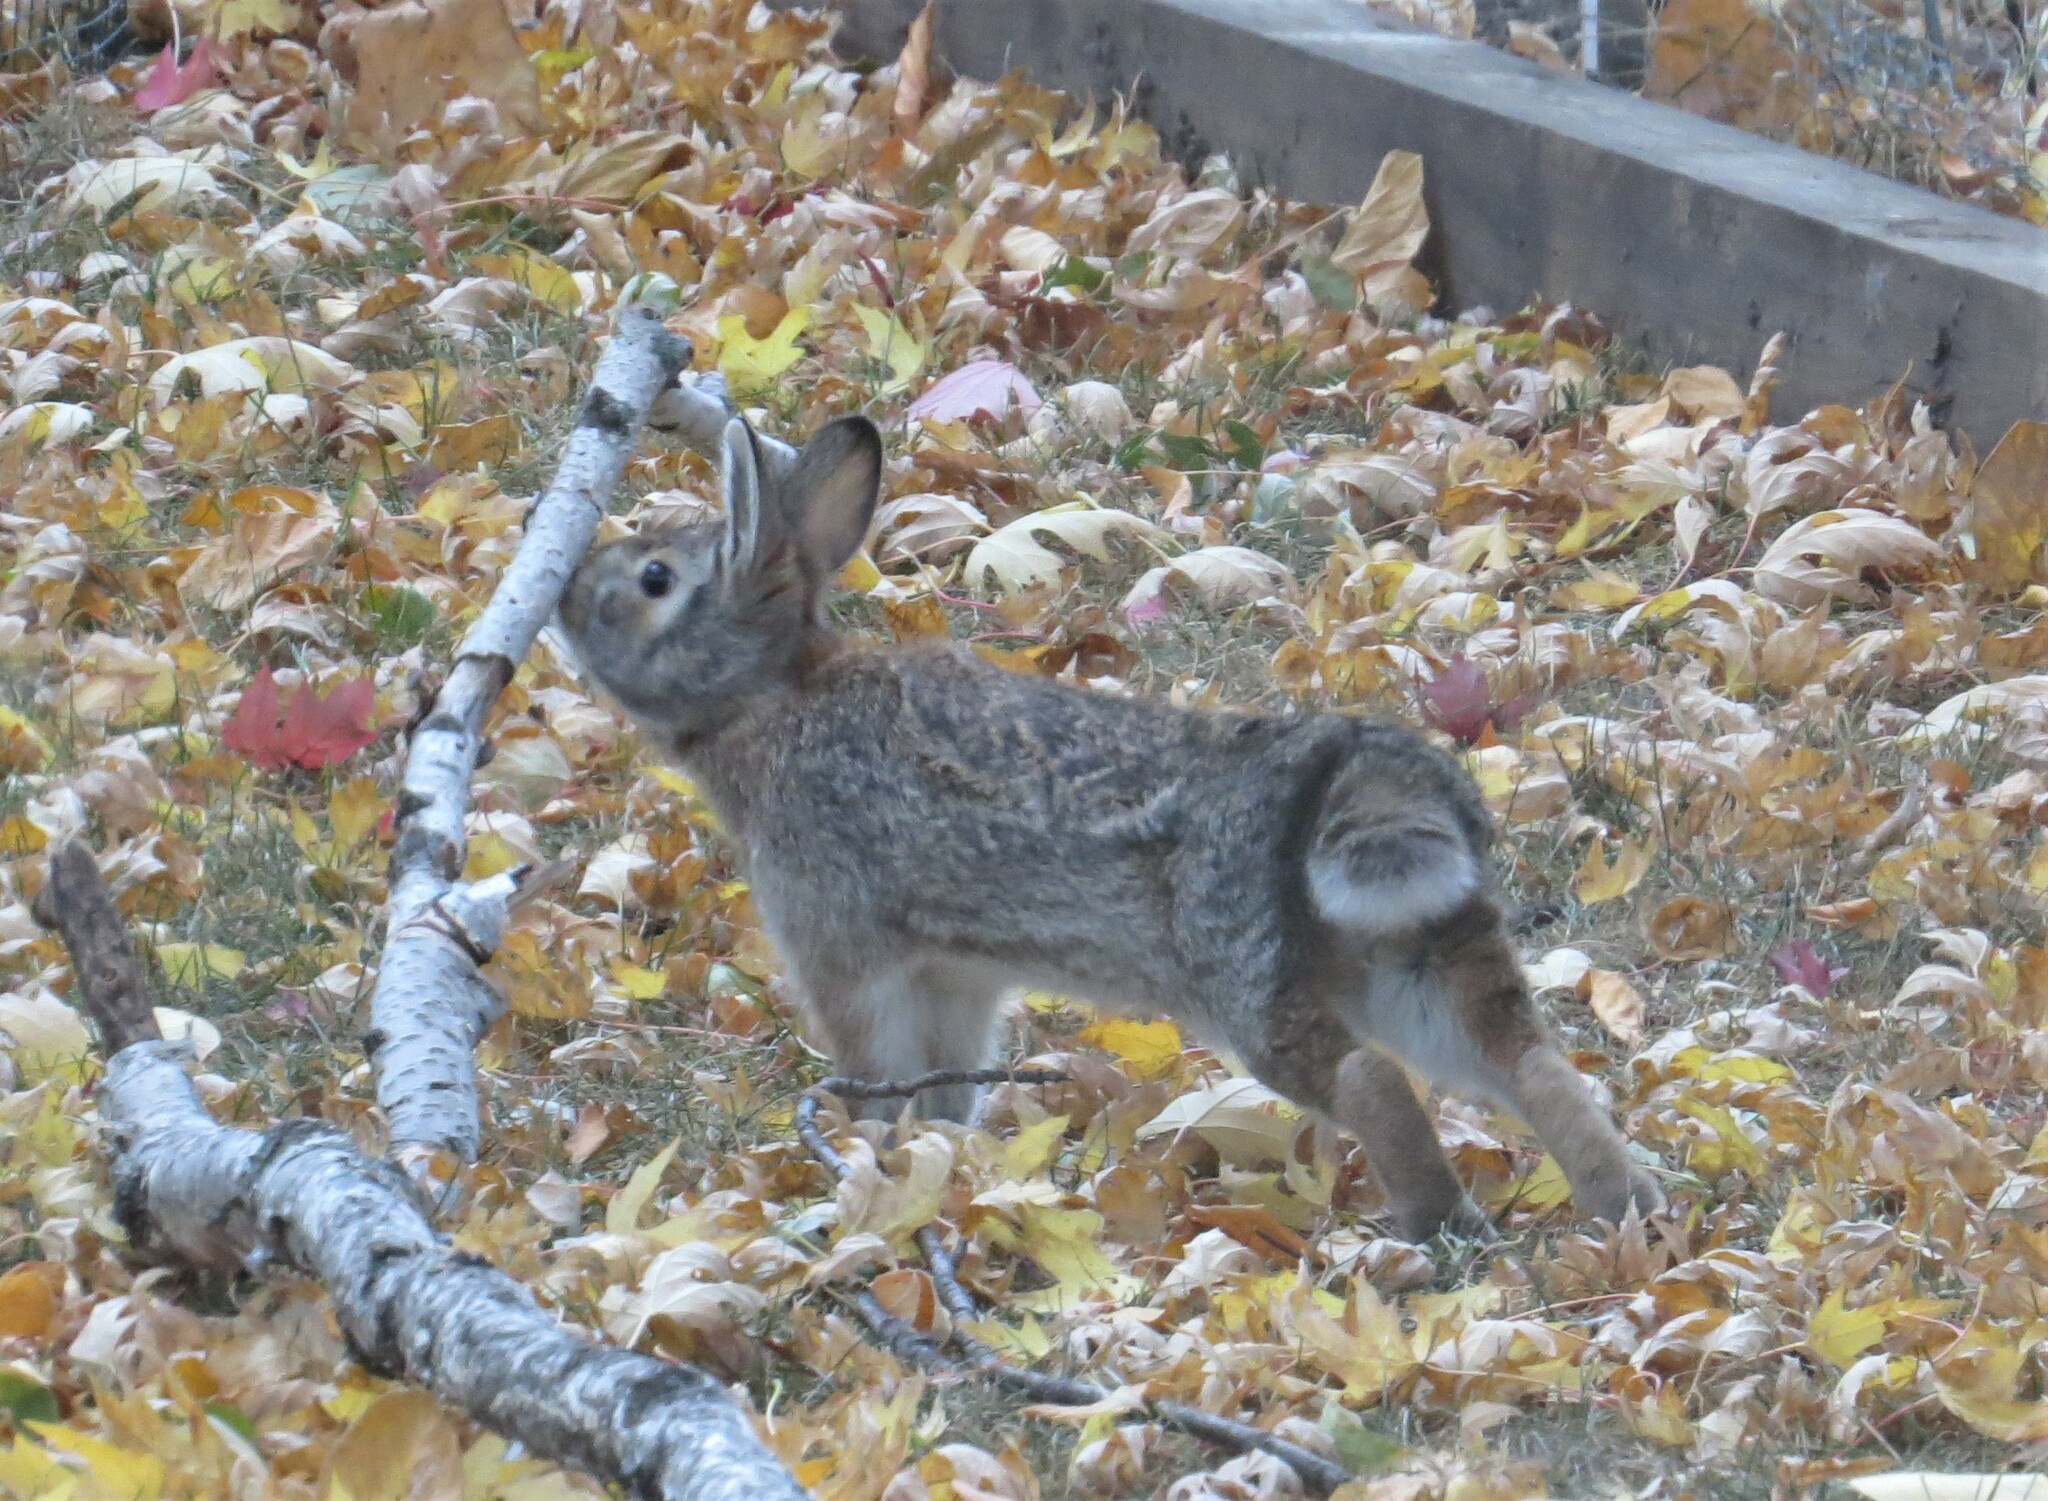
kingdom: Animalia
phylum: Chordata
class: Mammalia
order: Lagomorpha
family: Leporidae
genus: Sylvilagus
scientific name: Sylvilagus floridanus
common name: Eastern cottontail
